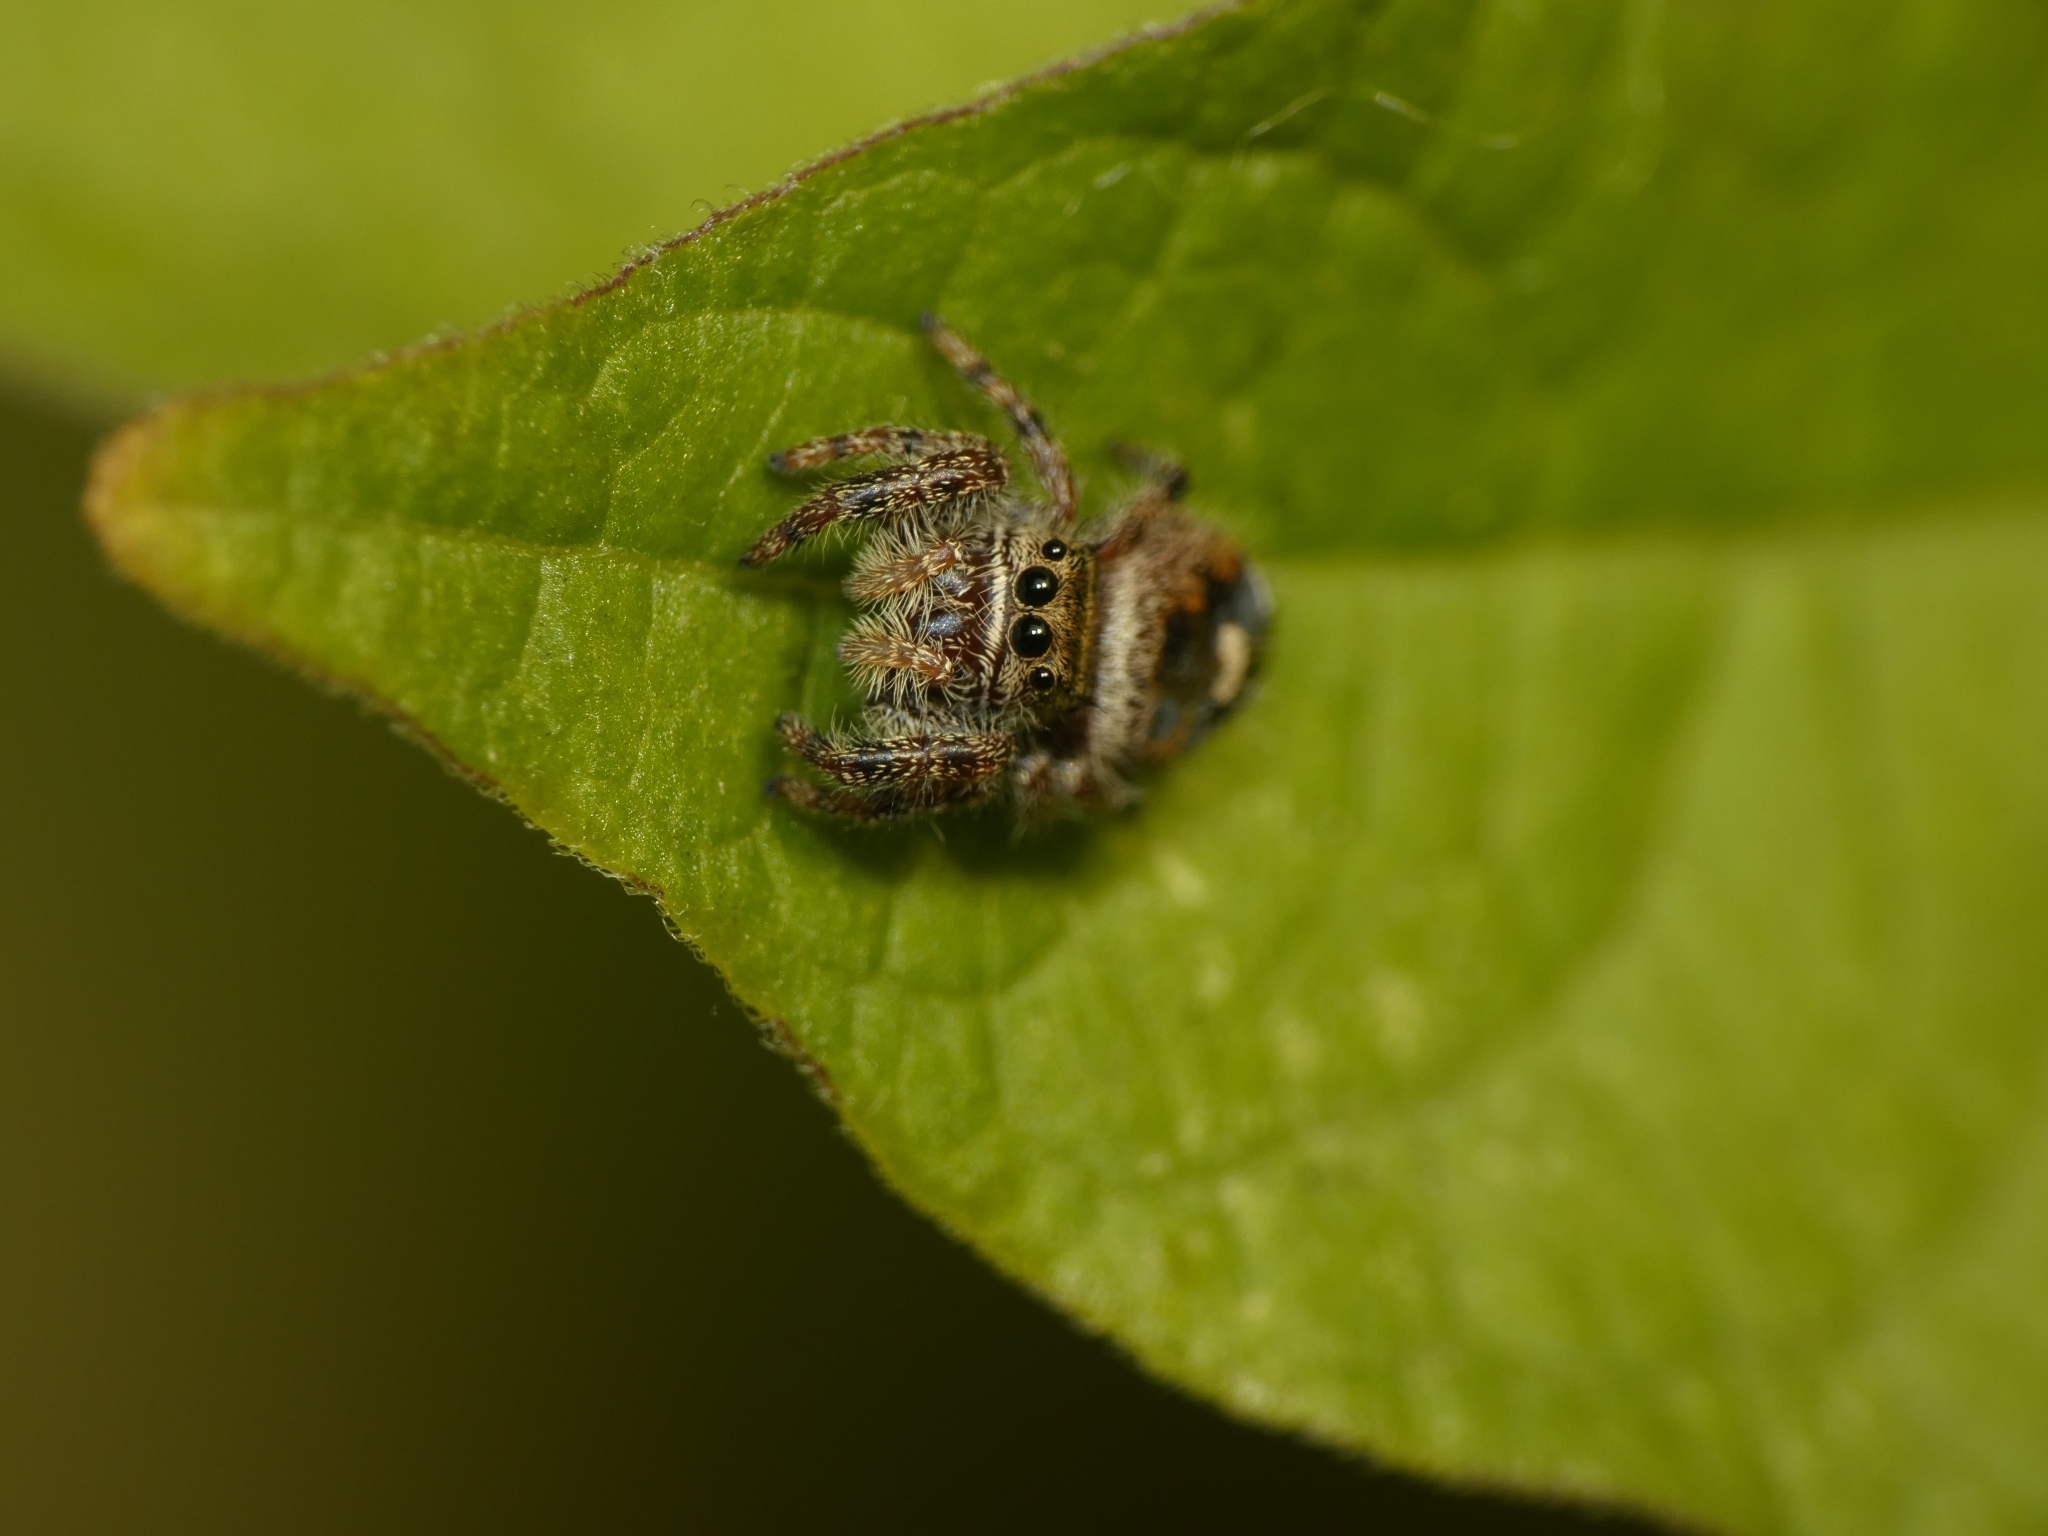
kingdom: Animalia
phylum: Arthropoda
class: Arachnida
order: Araneae
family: Salticidae
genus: Phidippus
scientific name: Phidippus audax
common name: Bold jumper
